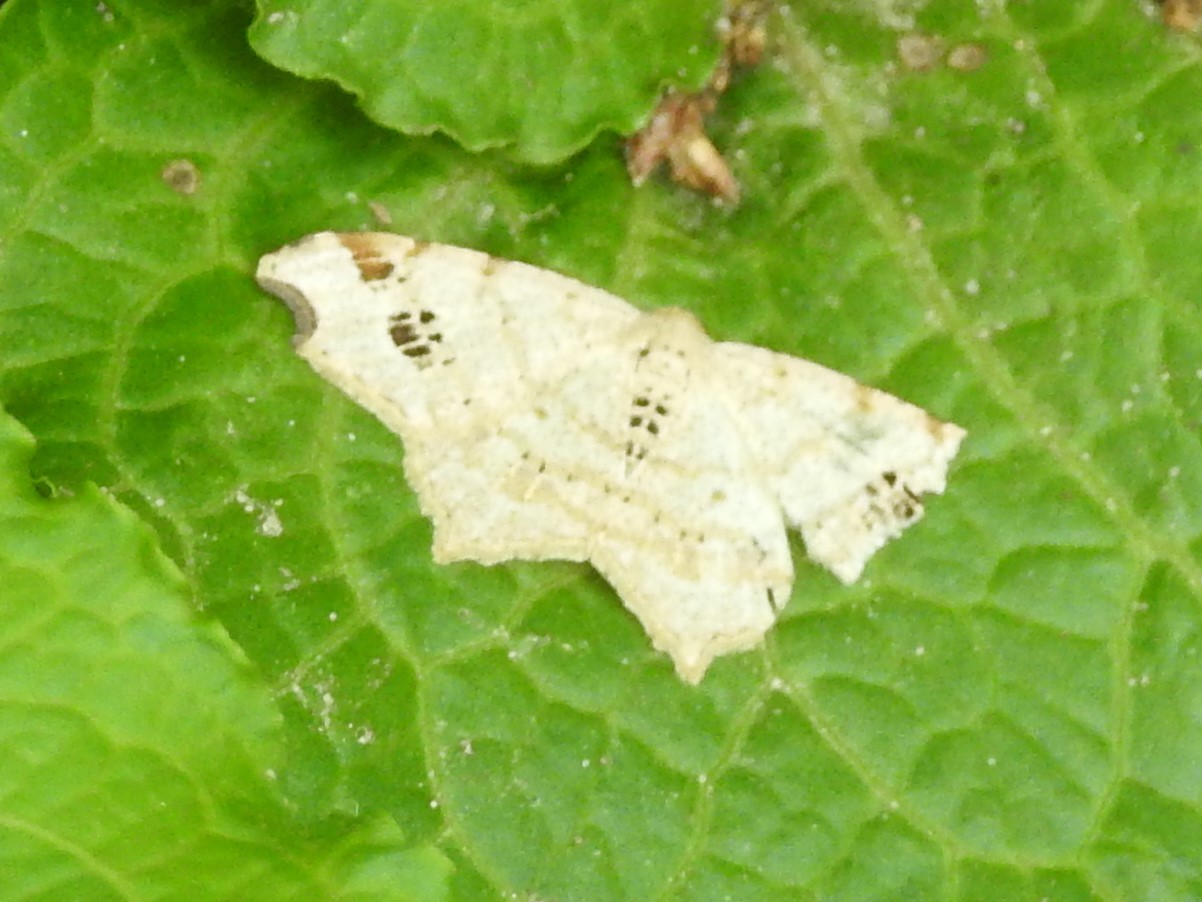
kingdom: Animalia
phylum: Arthropoda
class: Insecta
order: Lepidoptera
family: Geometridae
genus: Macaria
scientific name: Macaria aemulataria
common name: Common angle
